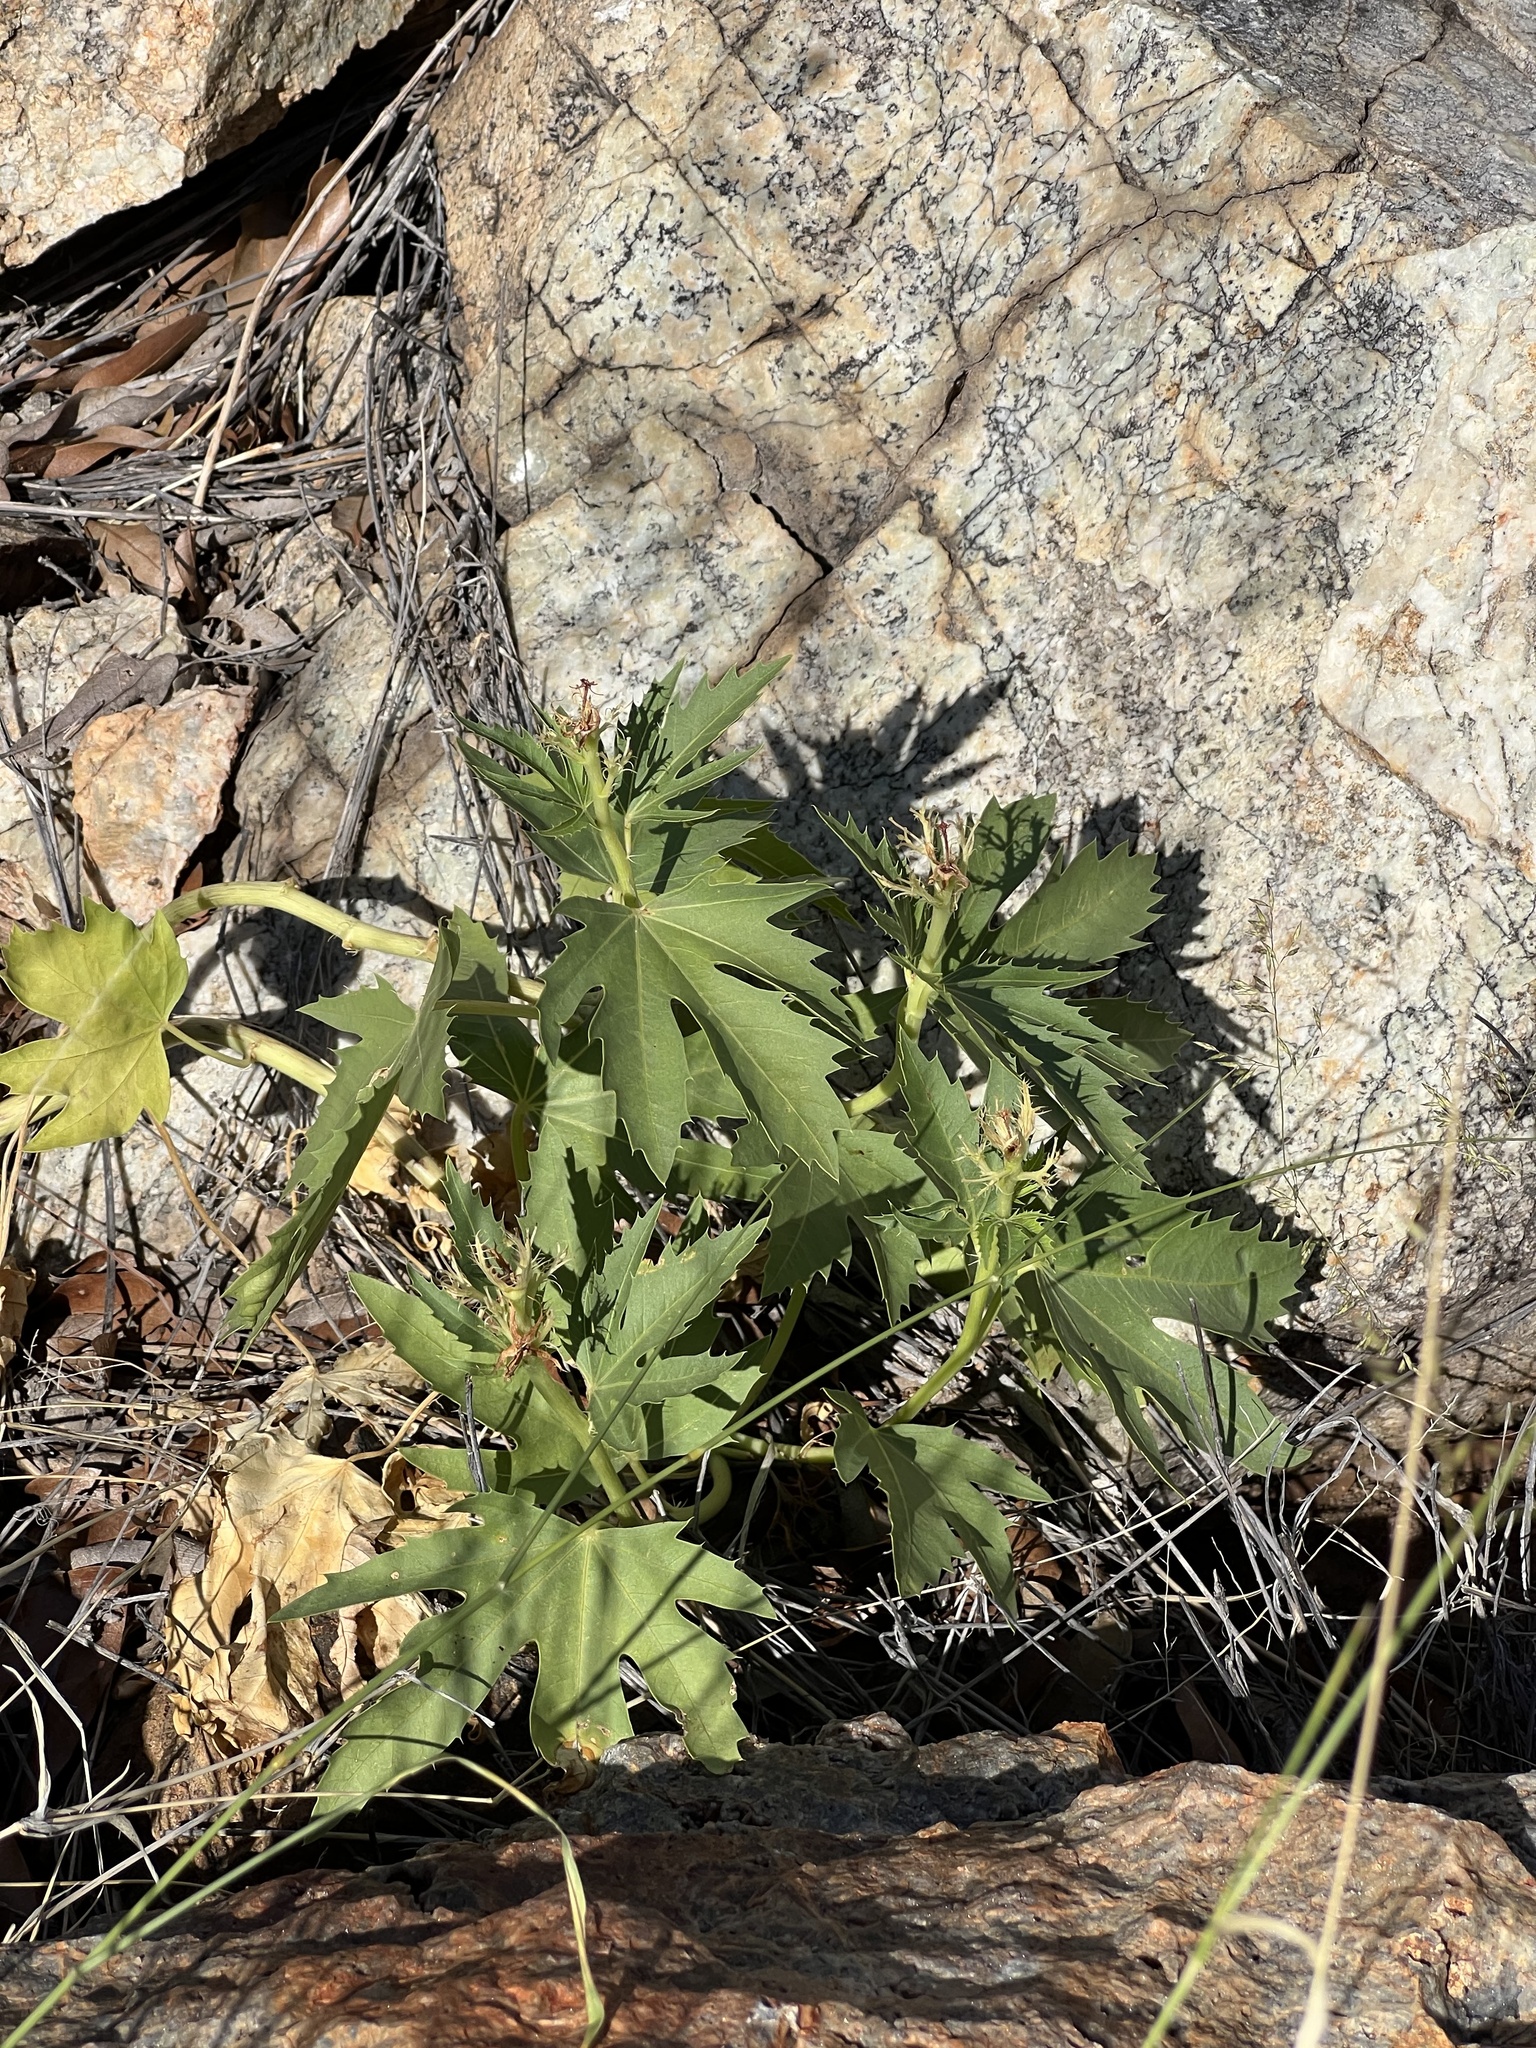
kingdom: Plantae
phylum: Tracheophyta
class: Magnoliopsida
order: Malpighiales
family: Euphorbiaceae
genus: Jatropha
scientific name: Jatropha macrorhiza
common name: Ragged nettlespurge
